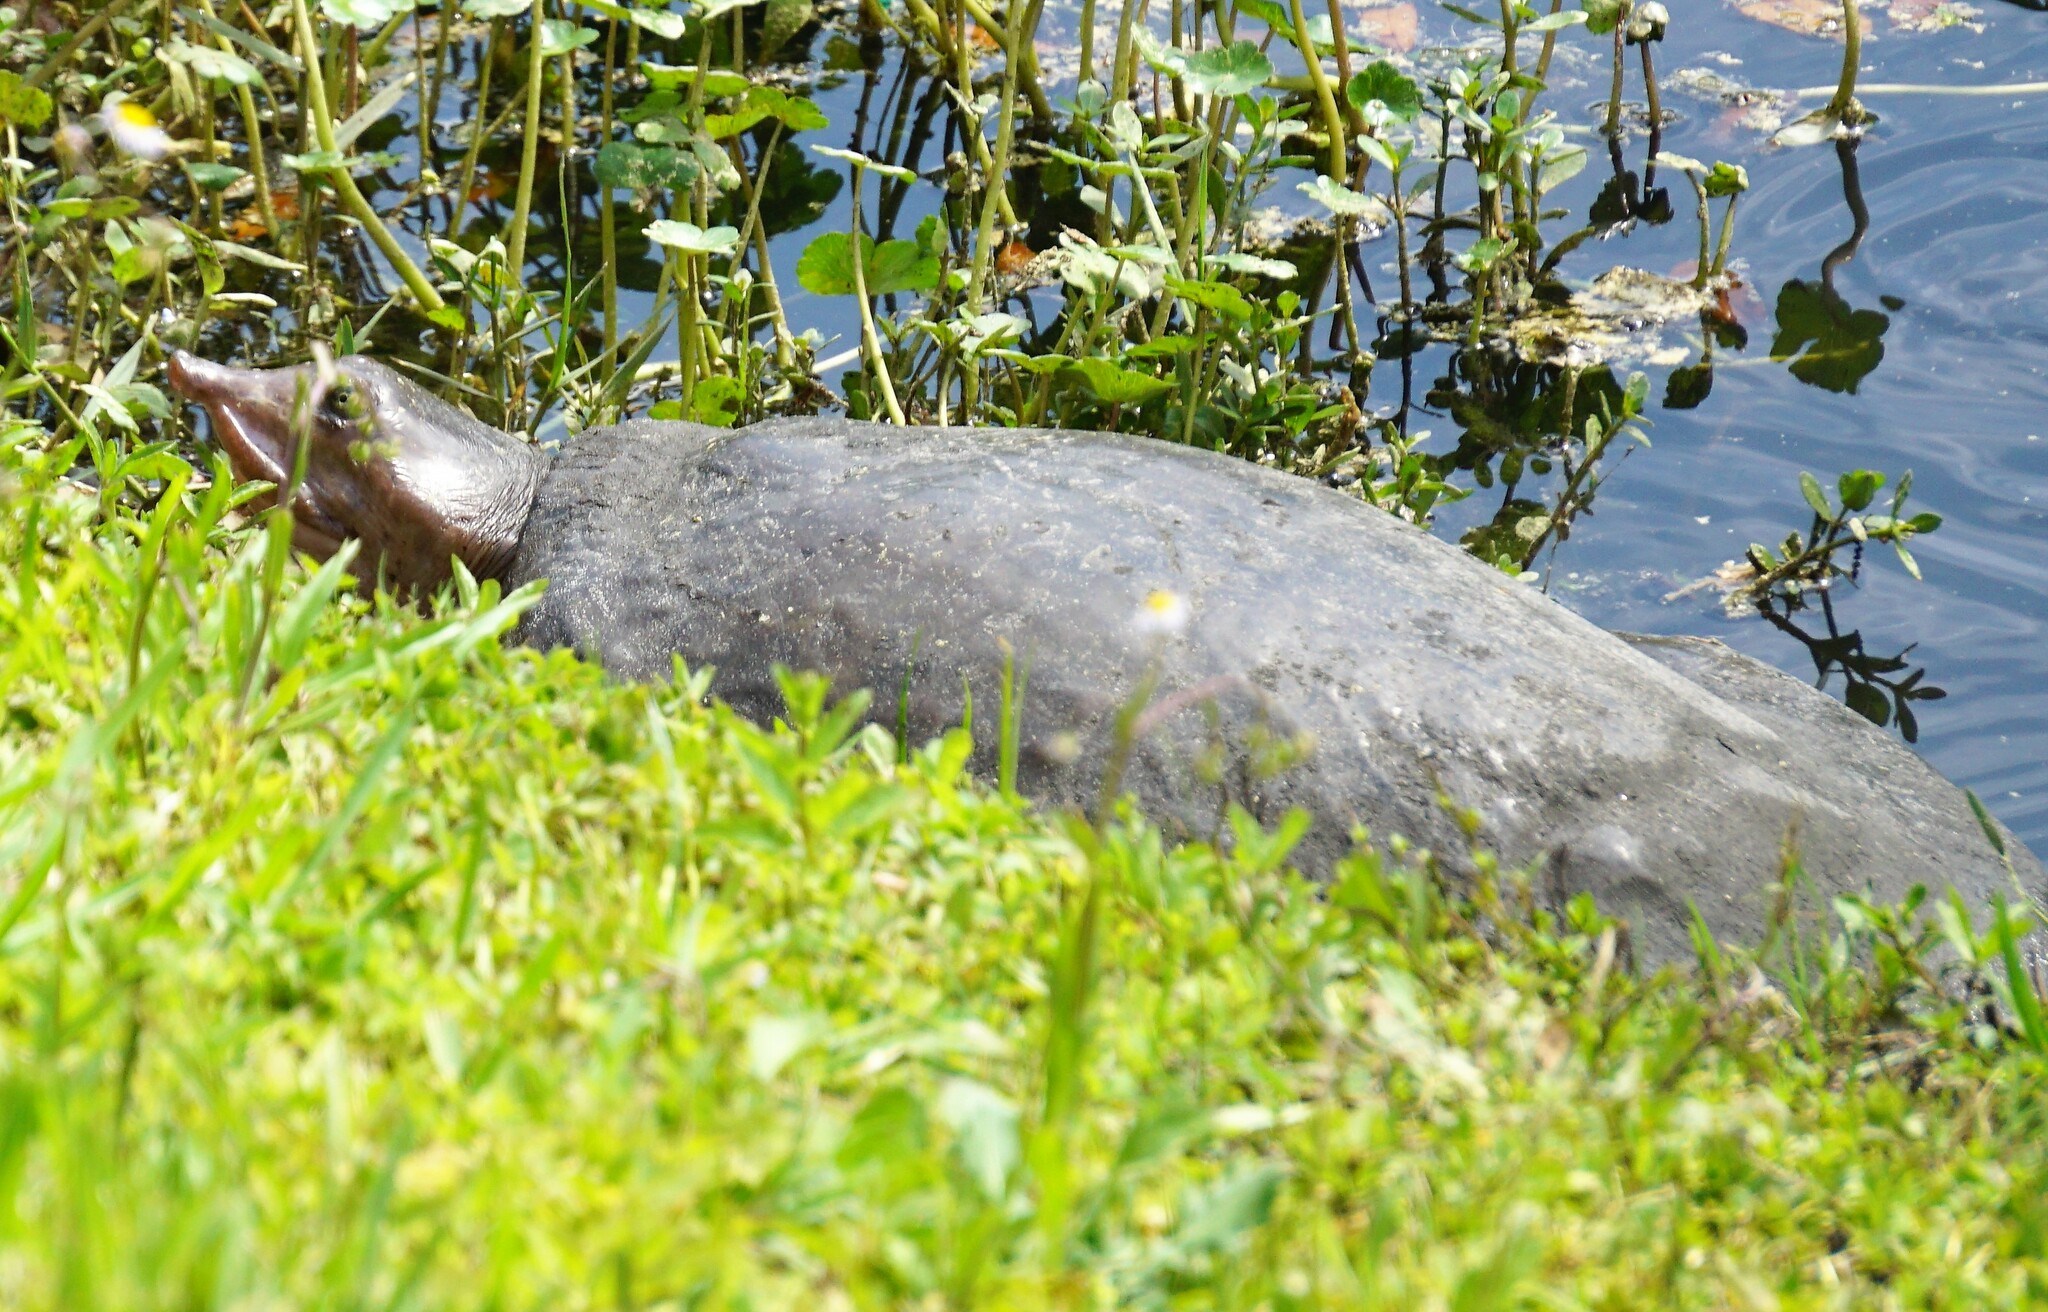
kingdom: Animalia
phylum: Chordata
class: Testudines
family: Trionychidae
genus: Apalone
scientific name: Apalone ferox
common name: Florida softshell turtle
